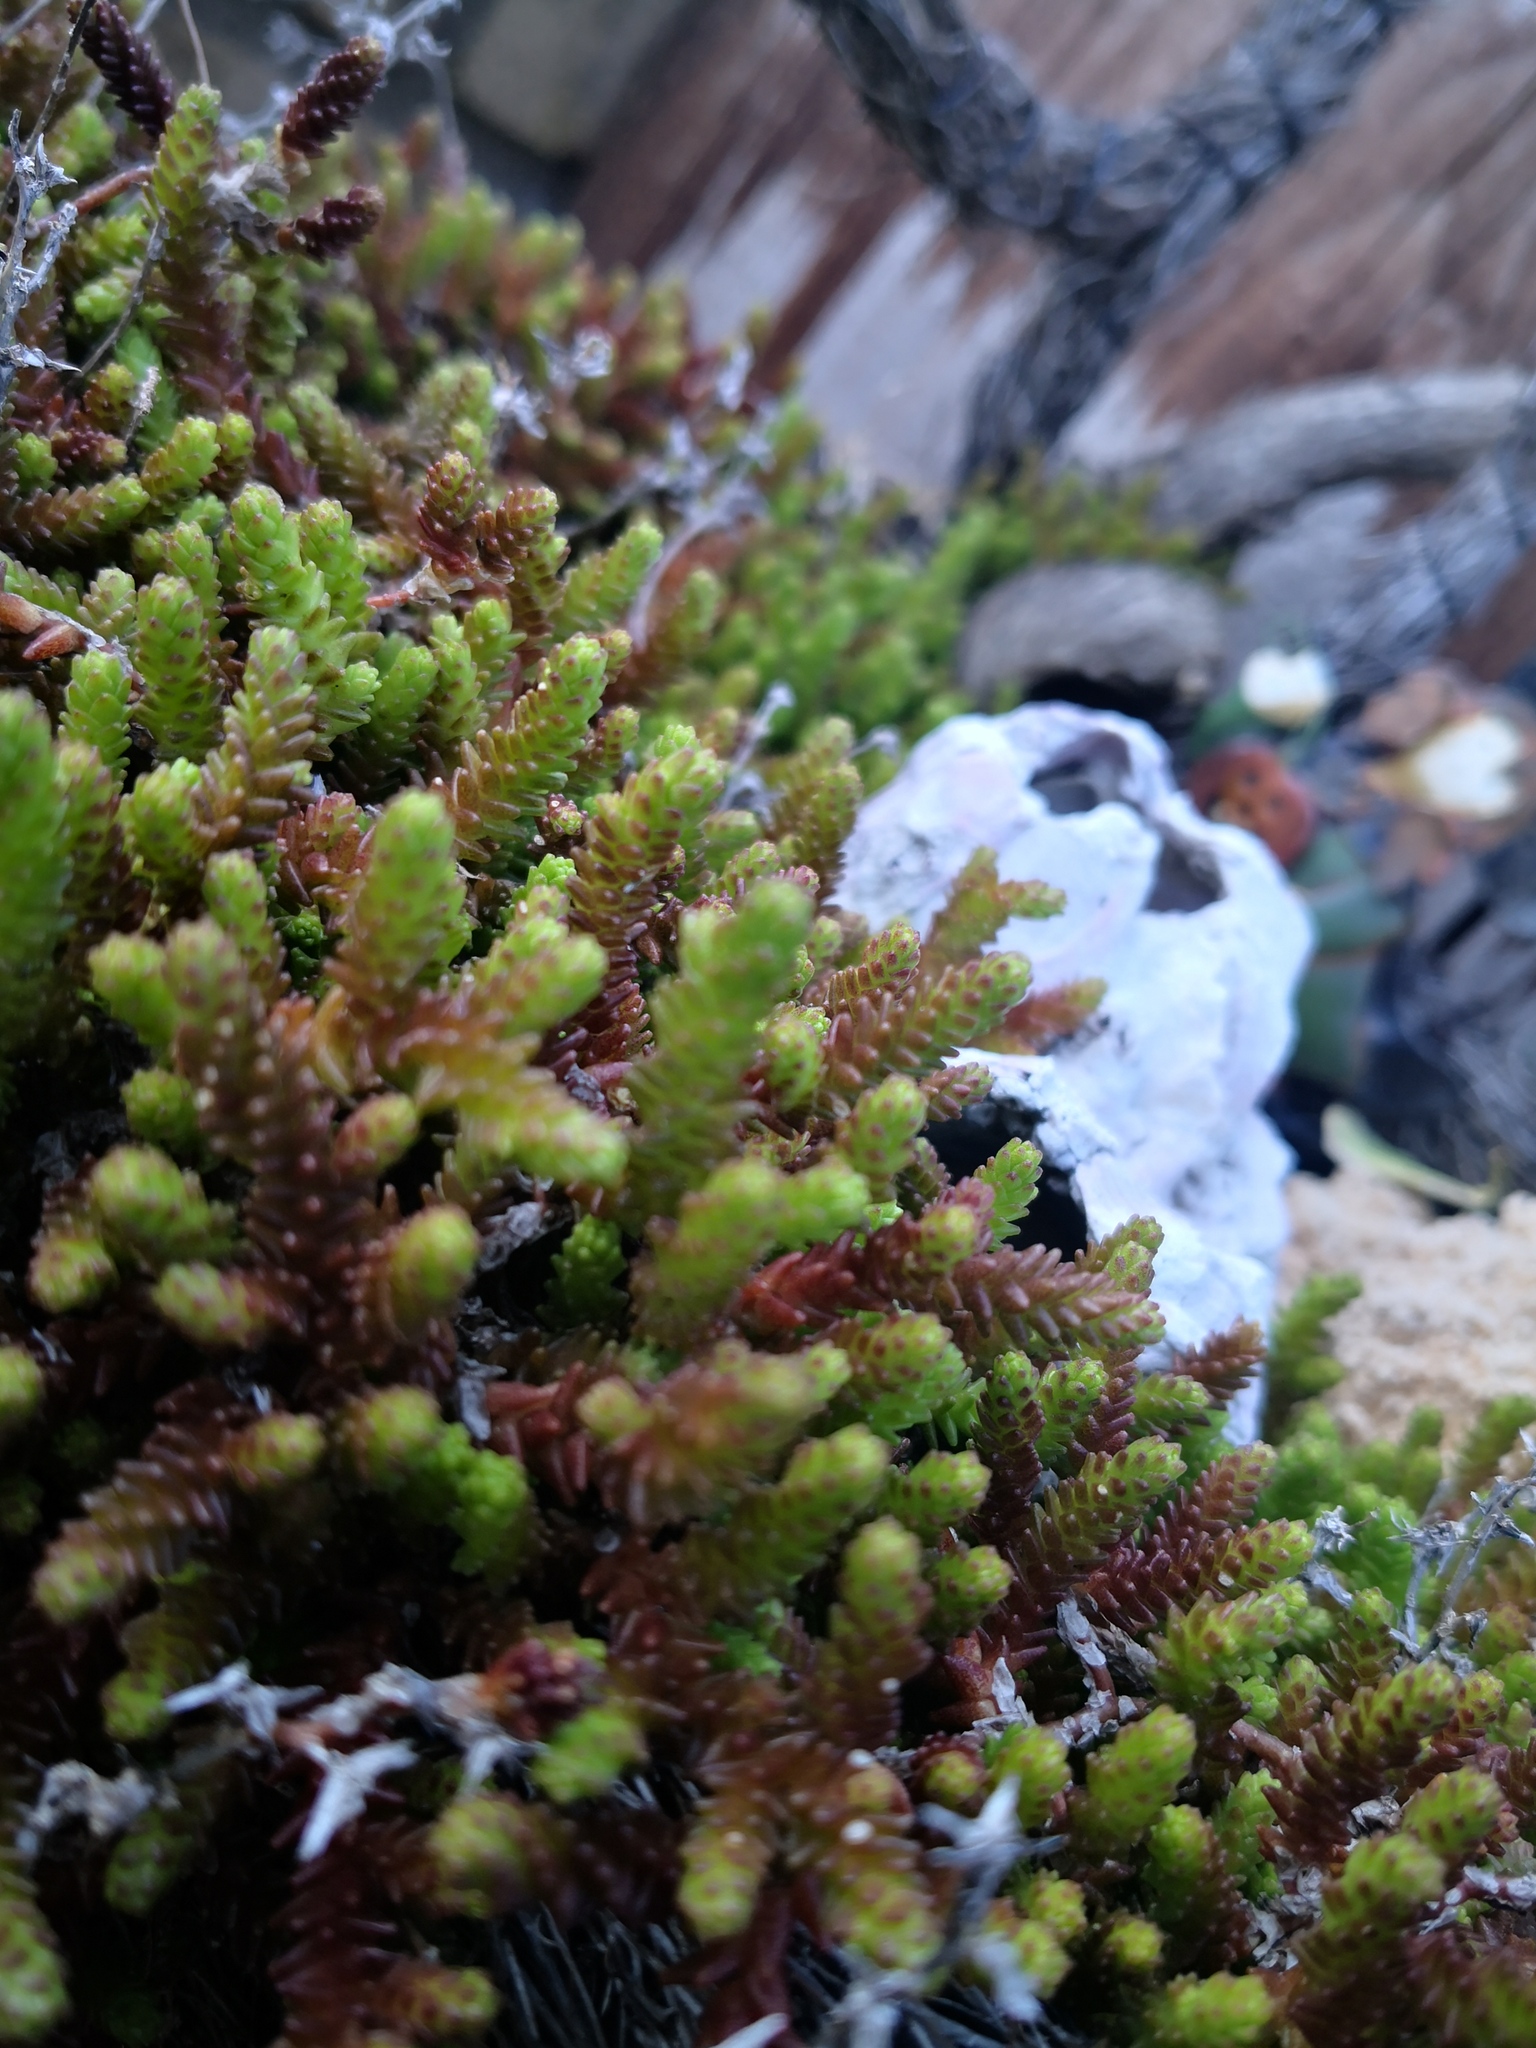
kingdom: Plantae
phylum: Tracheophyta
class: Magnoliopsida
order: Saxifragales
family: Crassulaceae
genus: Sedum
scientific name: Sedum acre
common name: Biting stonecrop
